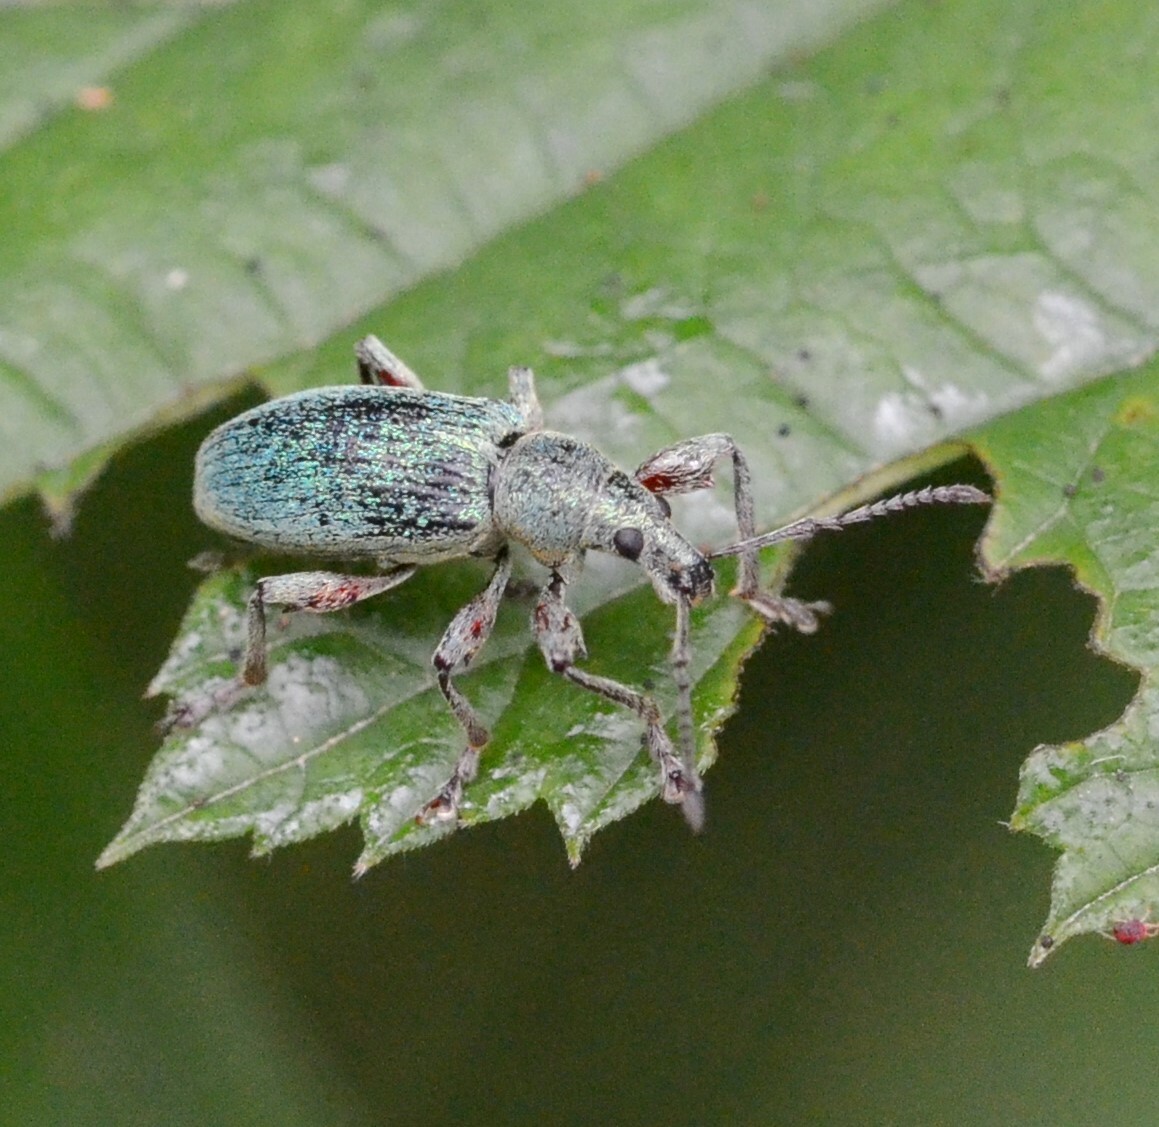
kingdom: Animalia
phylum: Arthropoda
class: Insecta
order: Coleoptera
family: Curculionidae
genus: Phyllobius
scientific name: Phyllobius pomaceus
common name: Green nettle weevil
